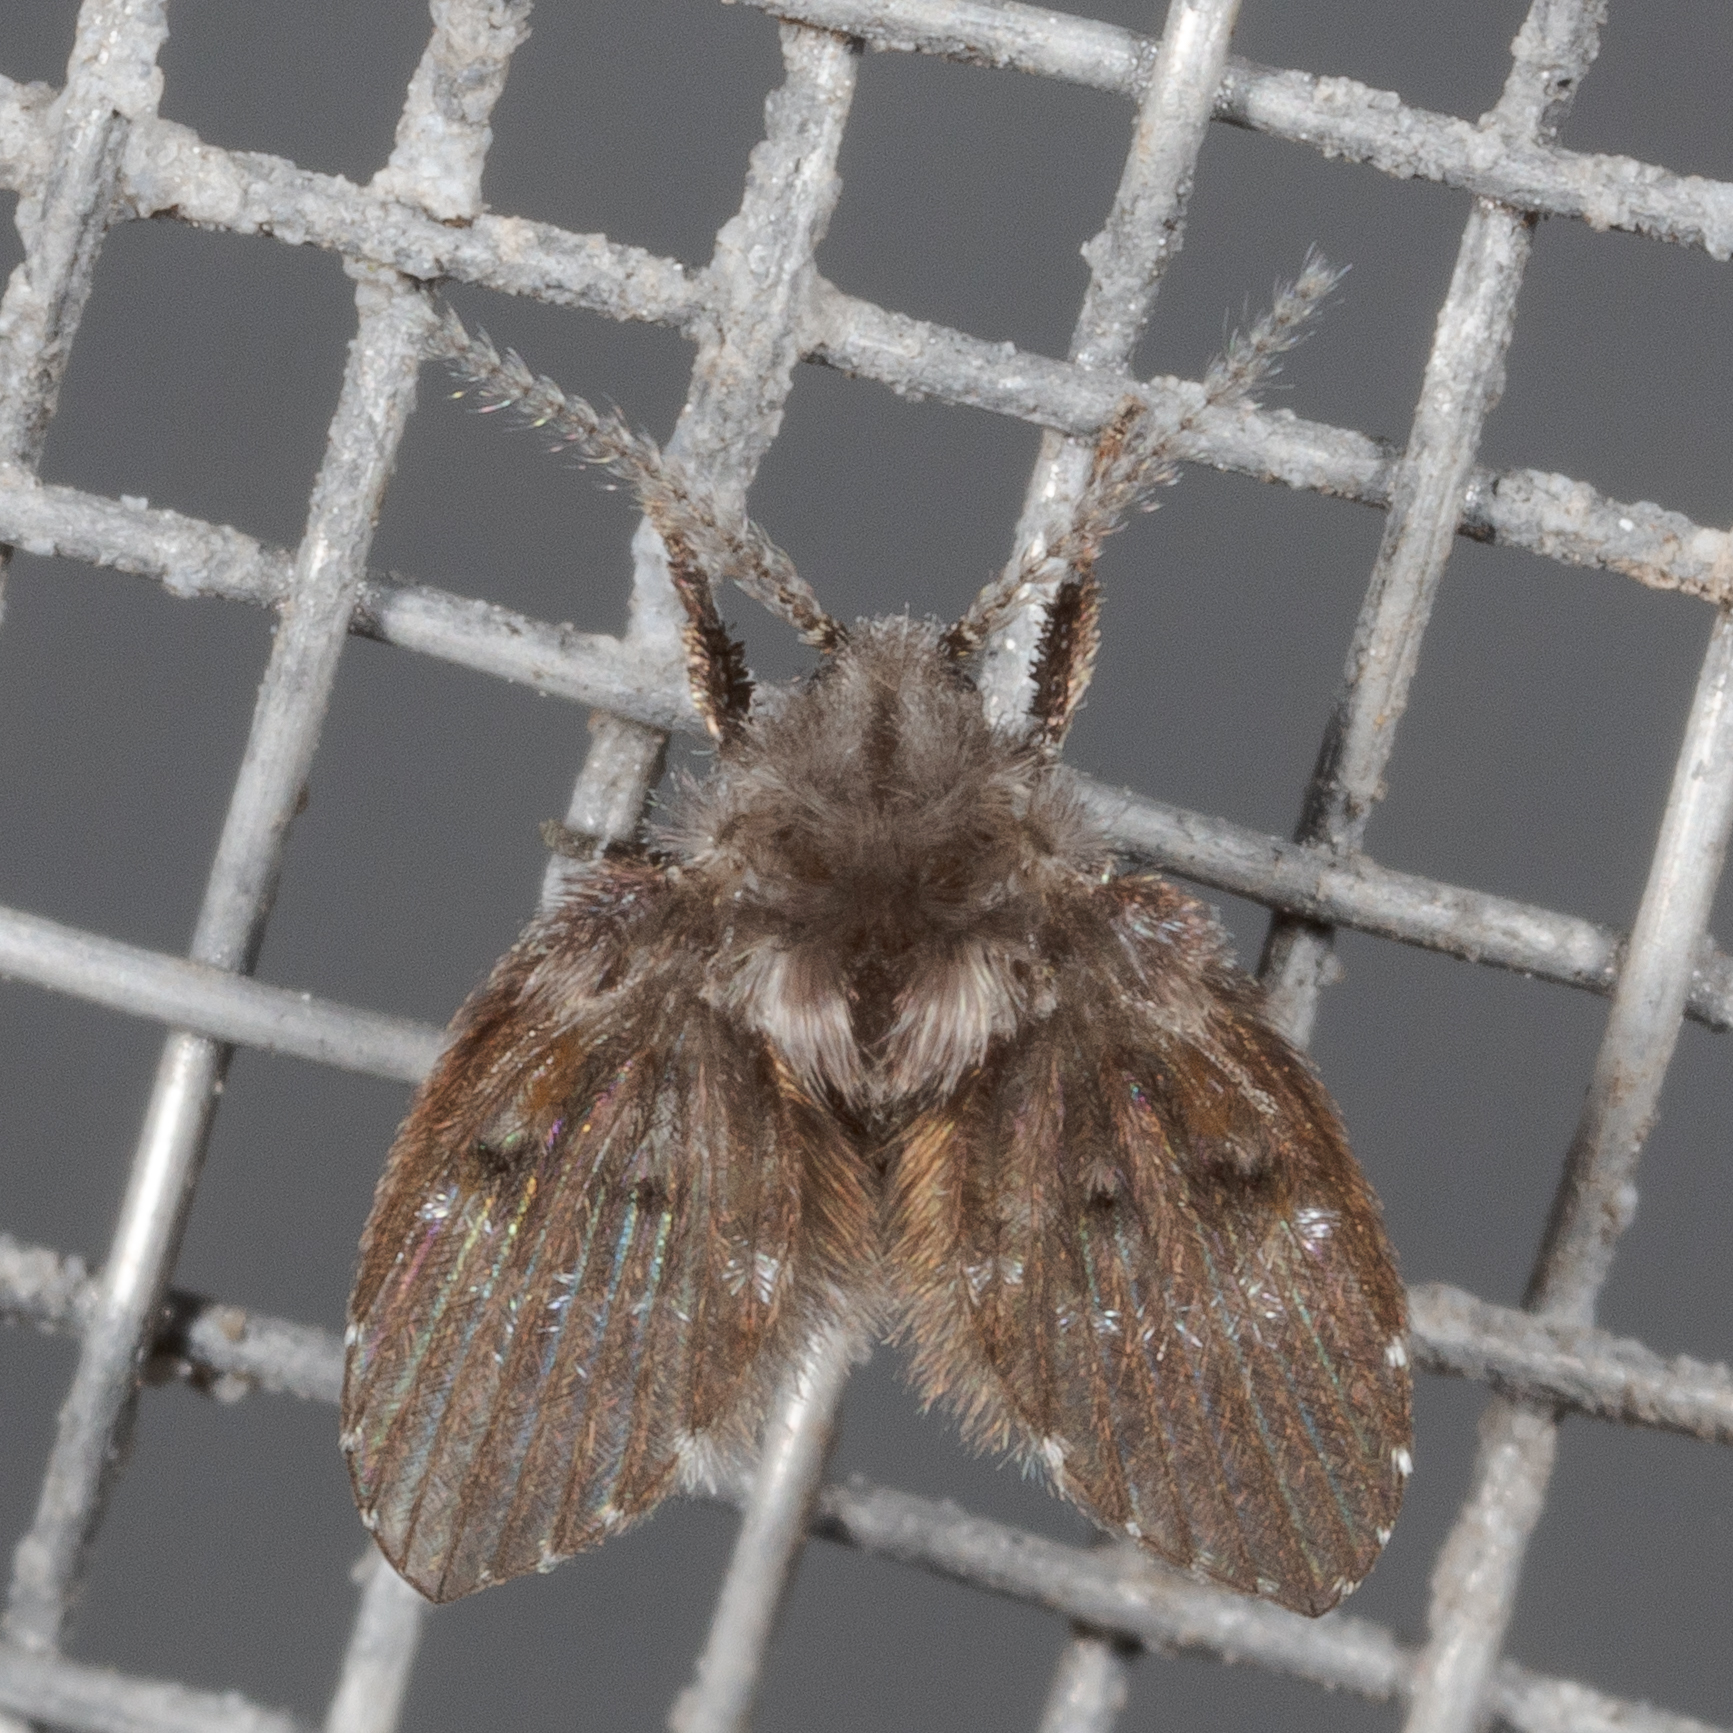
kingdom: Animalia
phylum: Arthropoda
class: Insecta
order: Diptera
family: Psychodidae
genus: Clogmia
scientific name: Clogmia albipunctatus
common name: White-spotted moth fly
